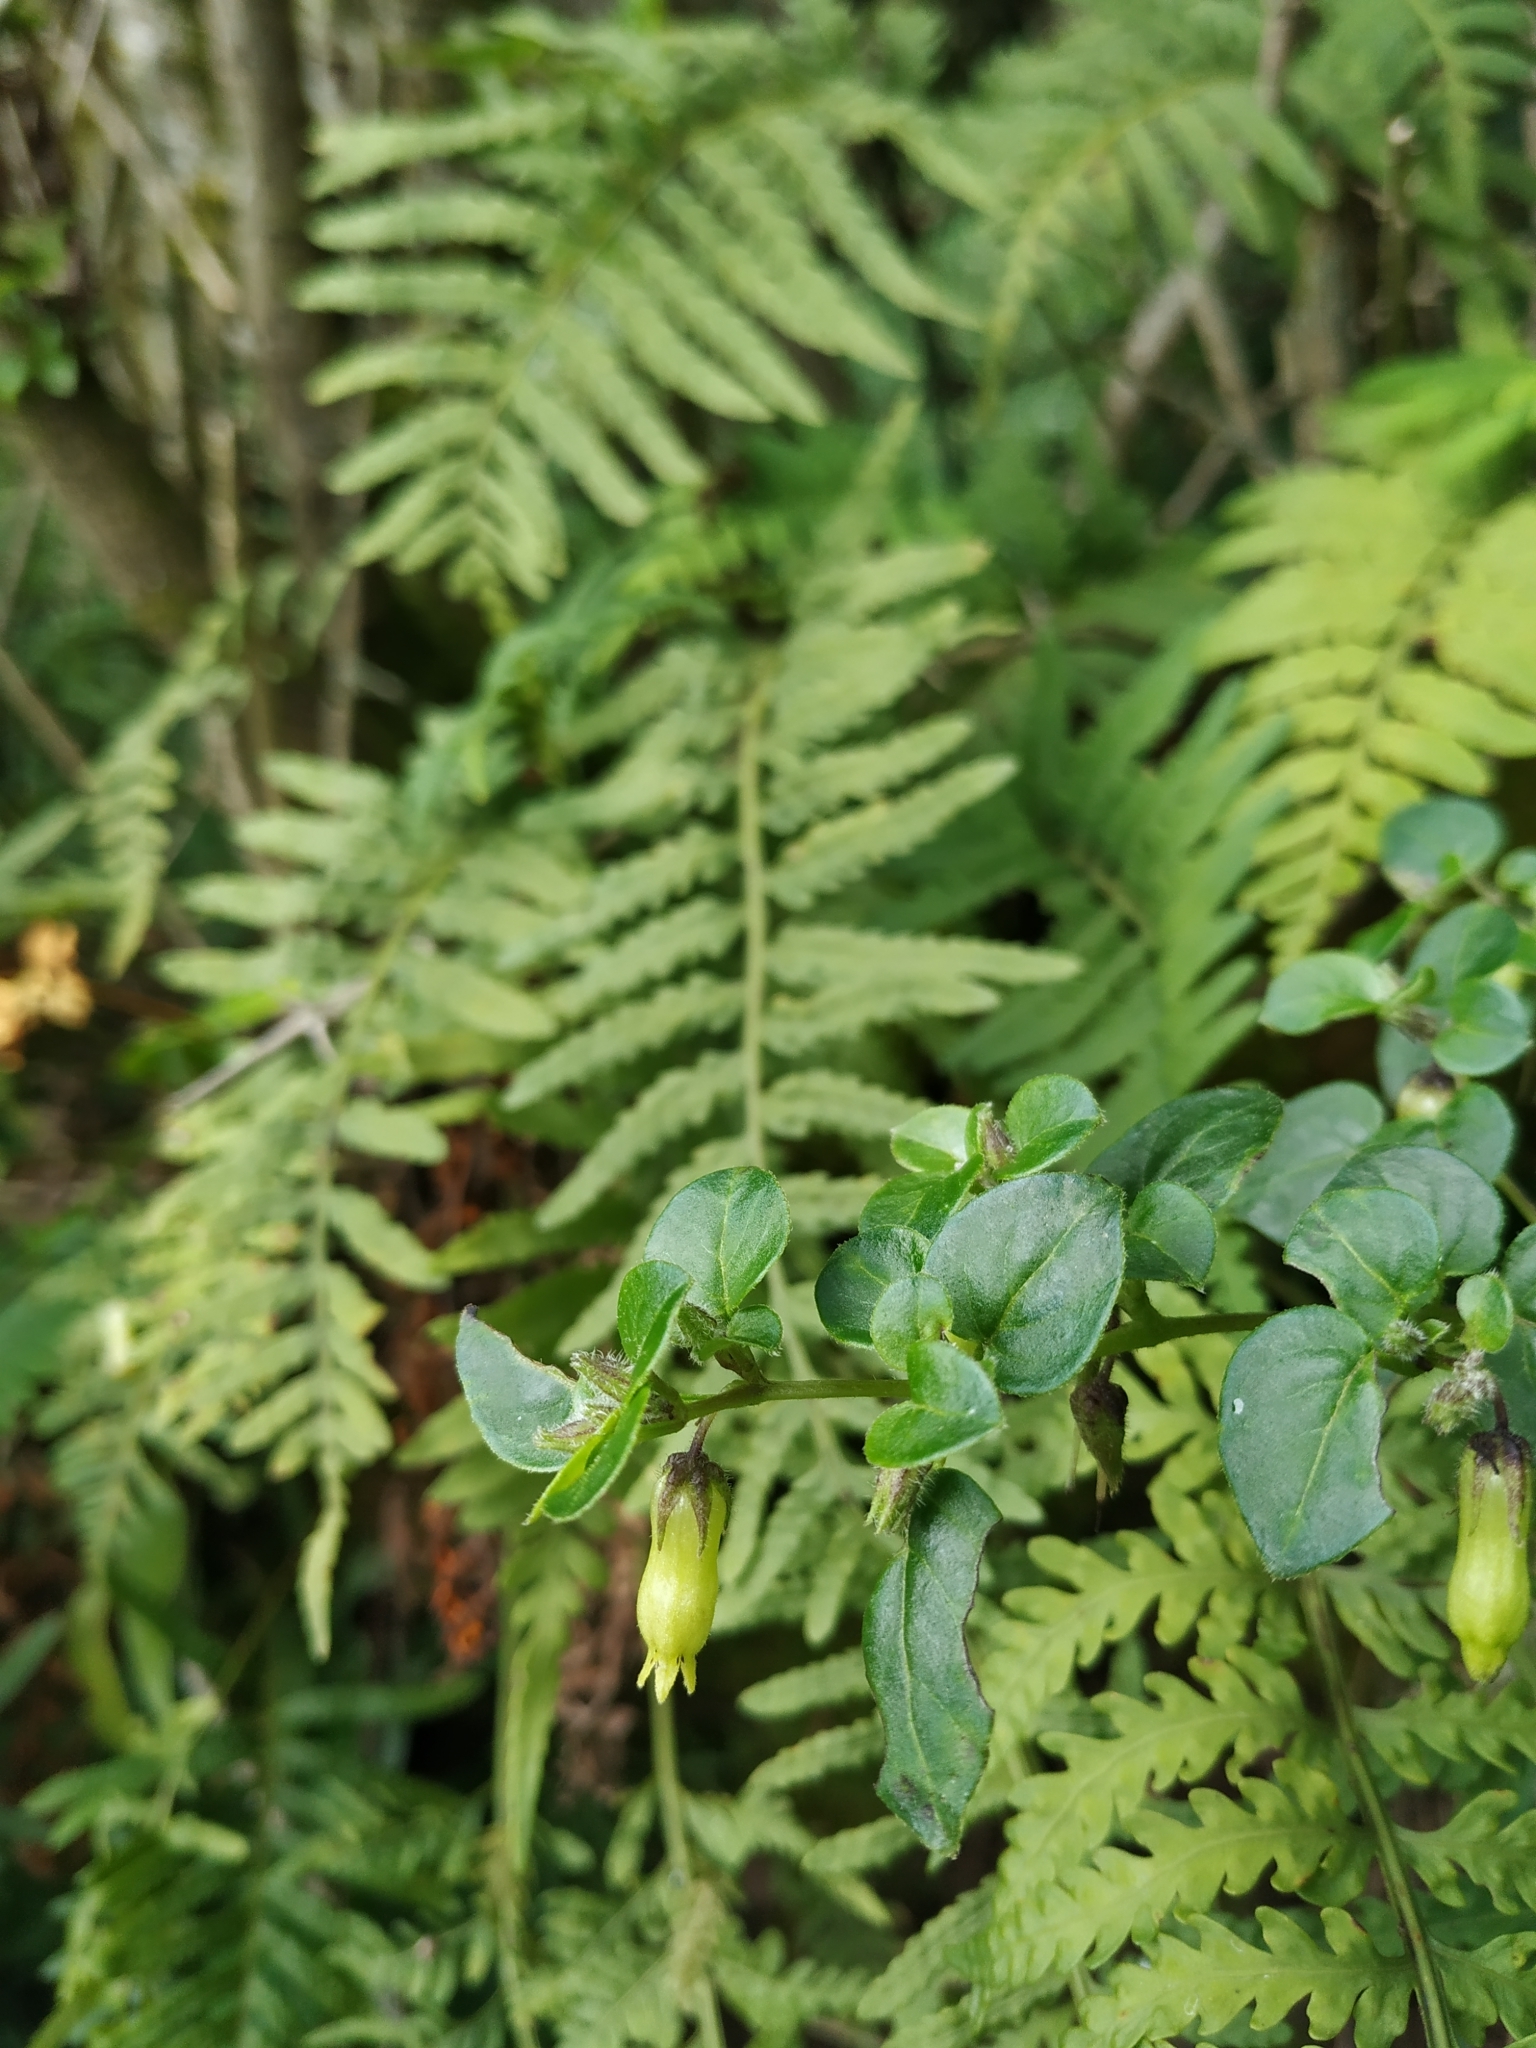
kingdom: Plantae
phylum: Tracheophyta
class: Magnoliopsida
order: Solanales
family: Solanaceae
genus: Salpichroa
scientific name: Salpichroa tristis
